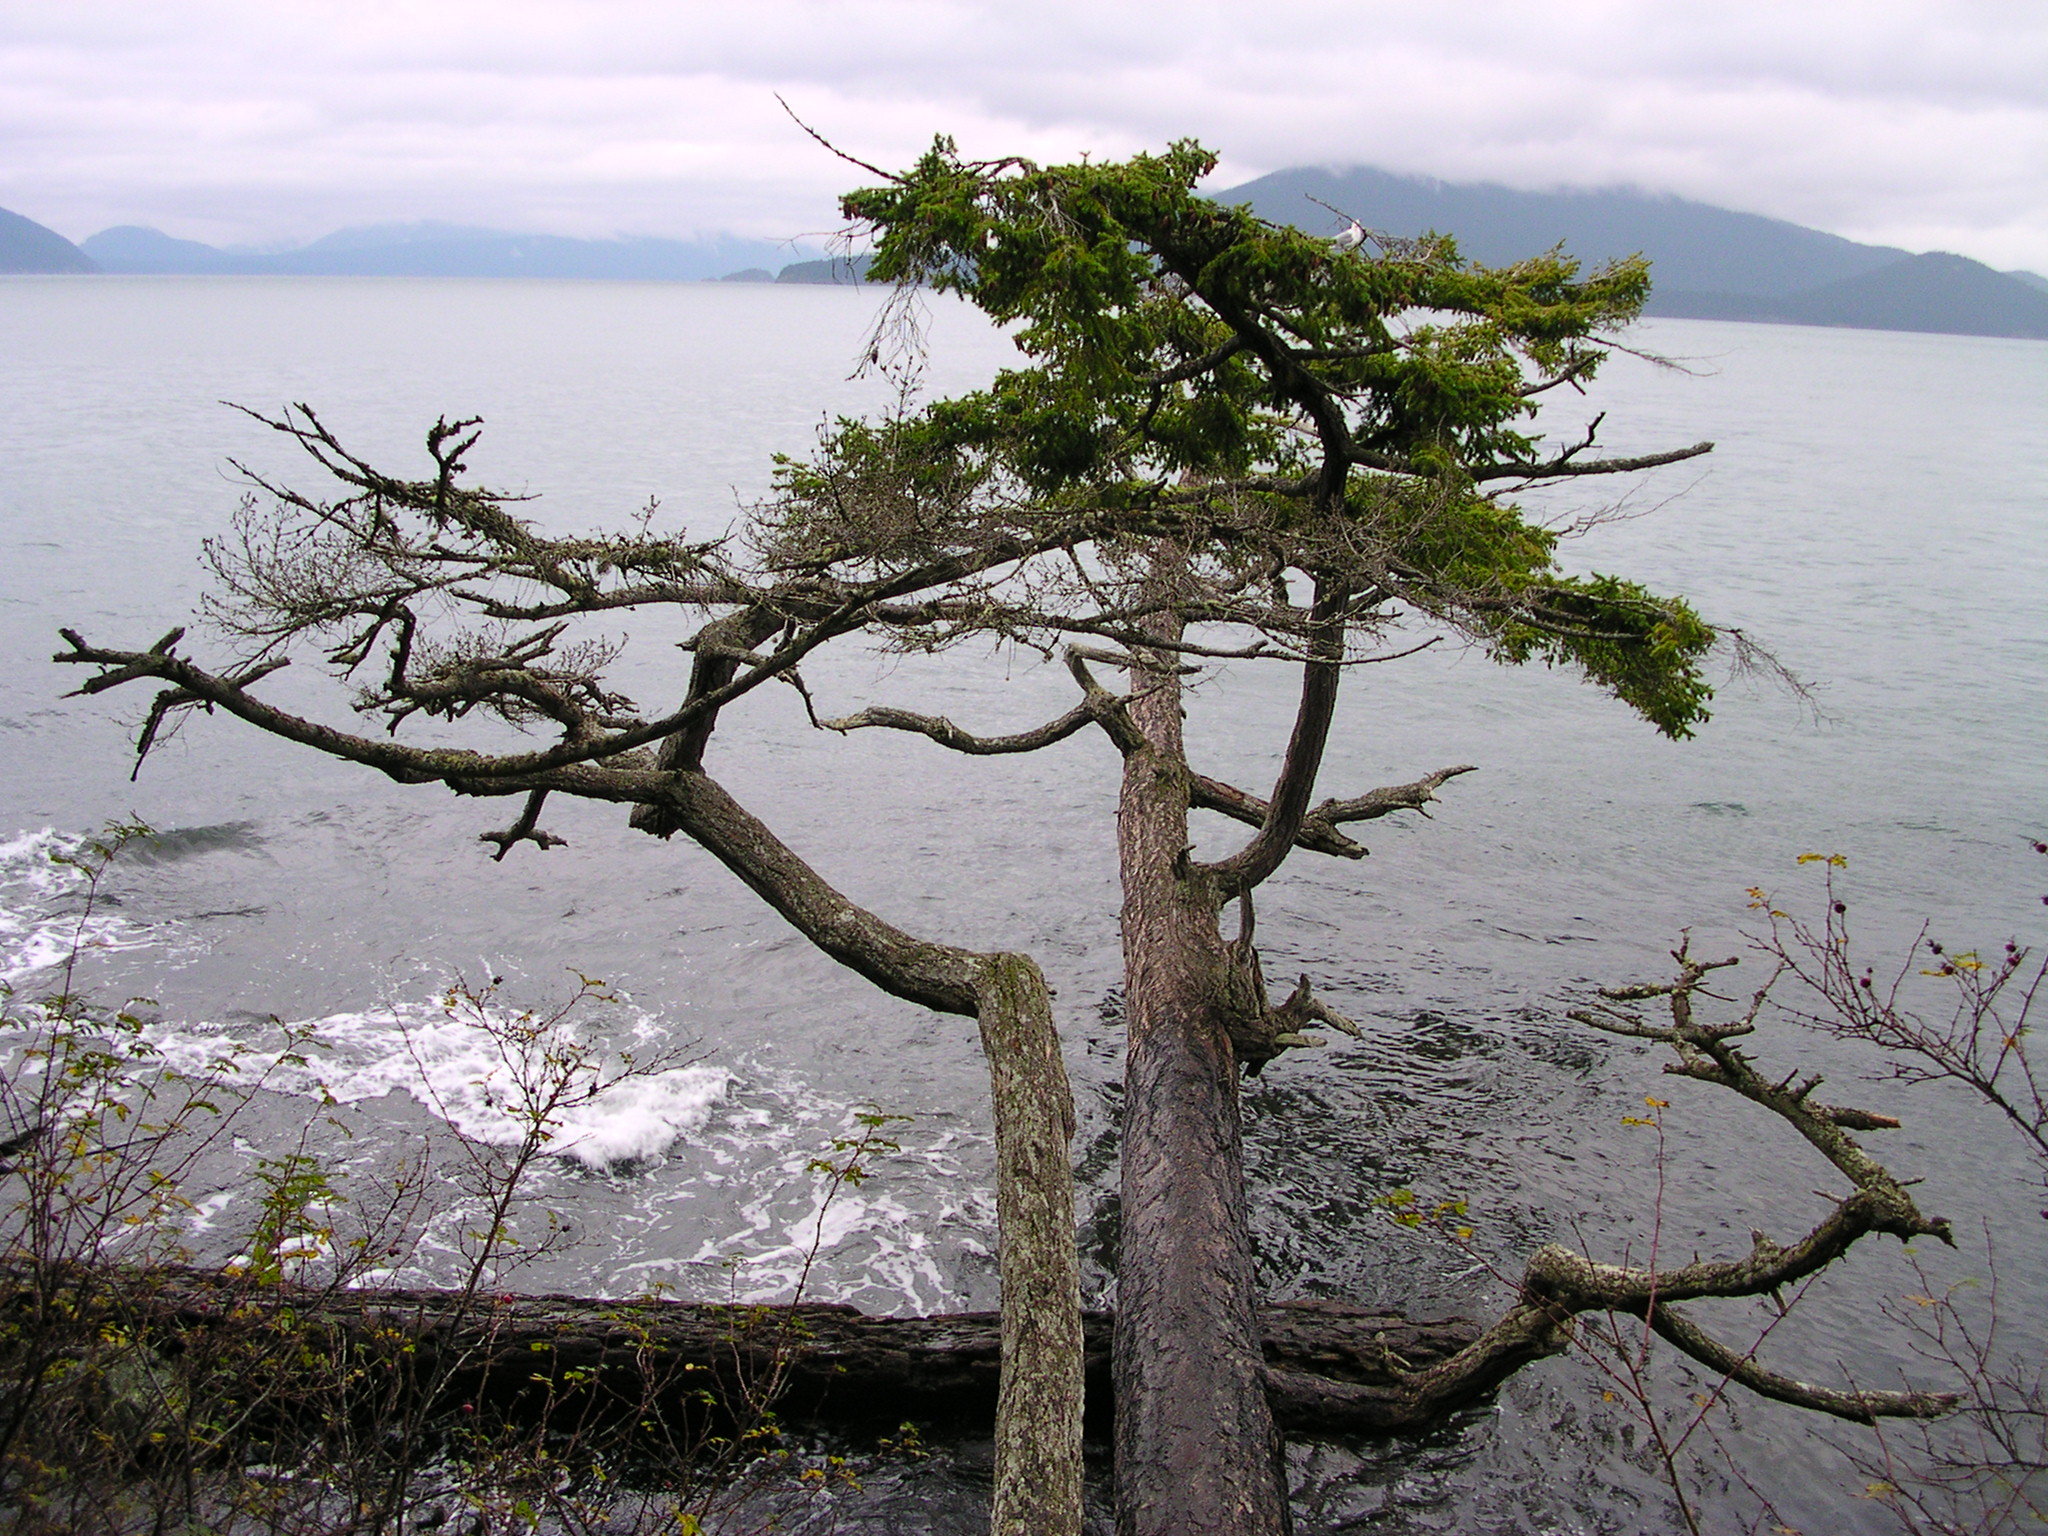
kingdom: Plantae
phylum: Tracheophyta
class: Pinopsida
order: Pinales
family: Pinaceae
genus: Pseudotsuga
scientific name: Pseudotsuga menziesii
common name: Douglas fir
